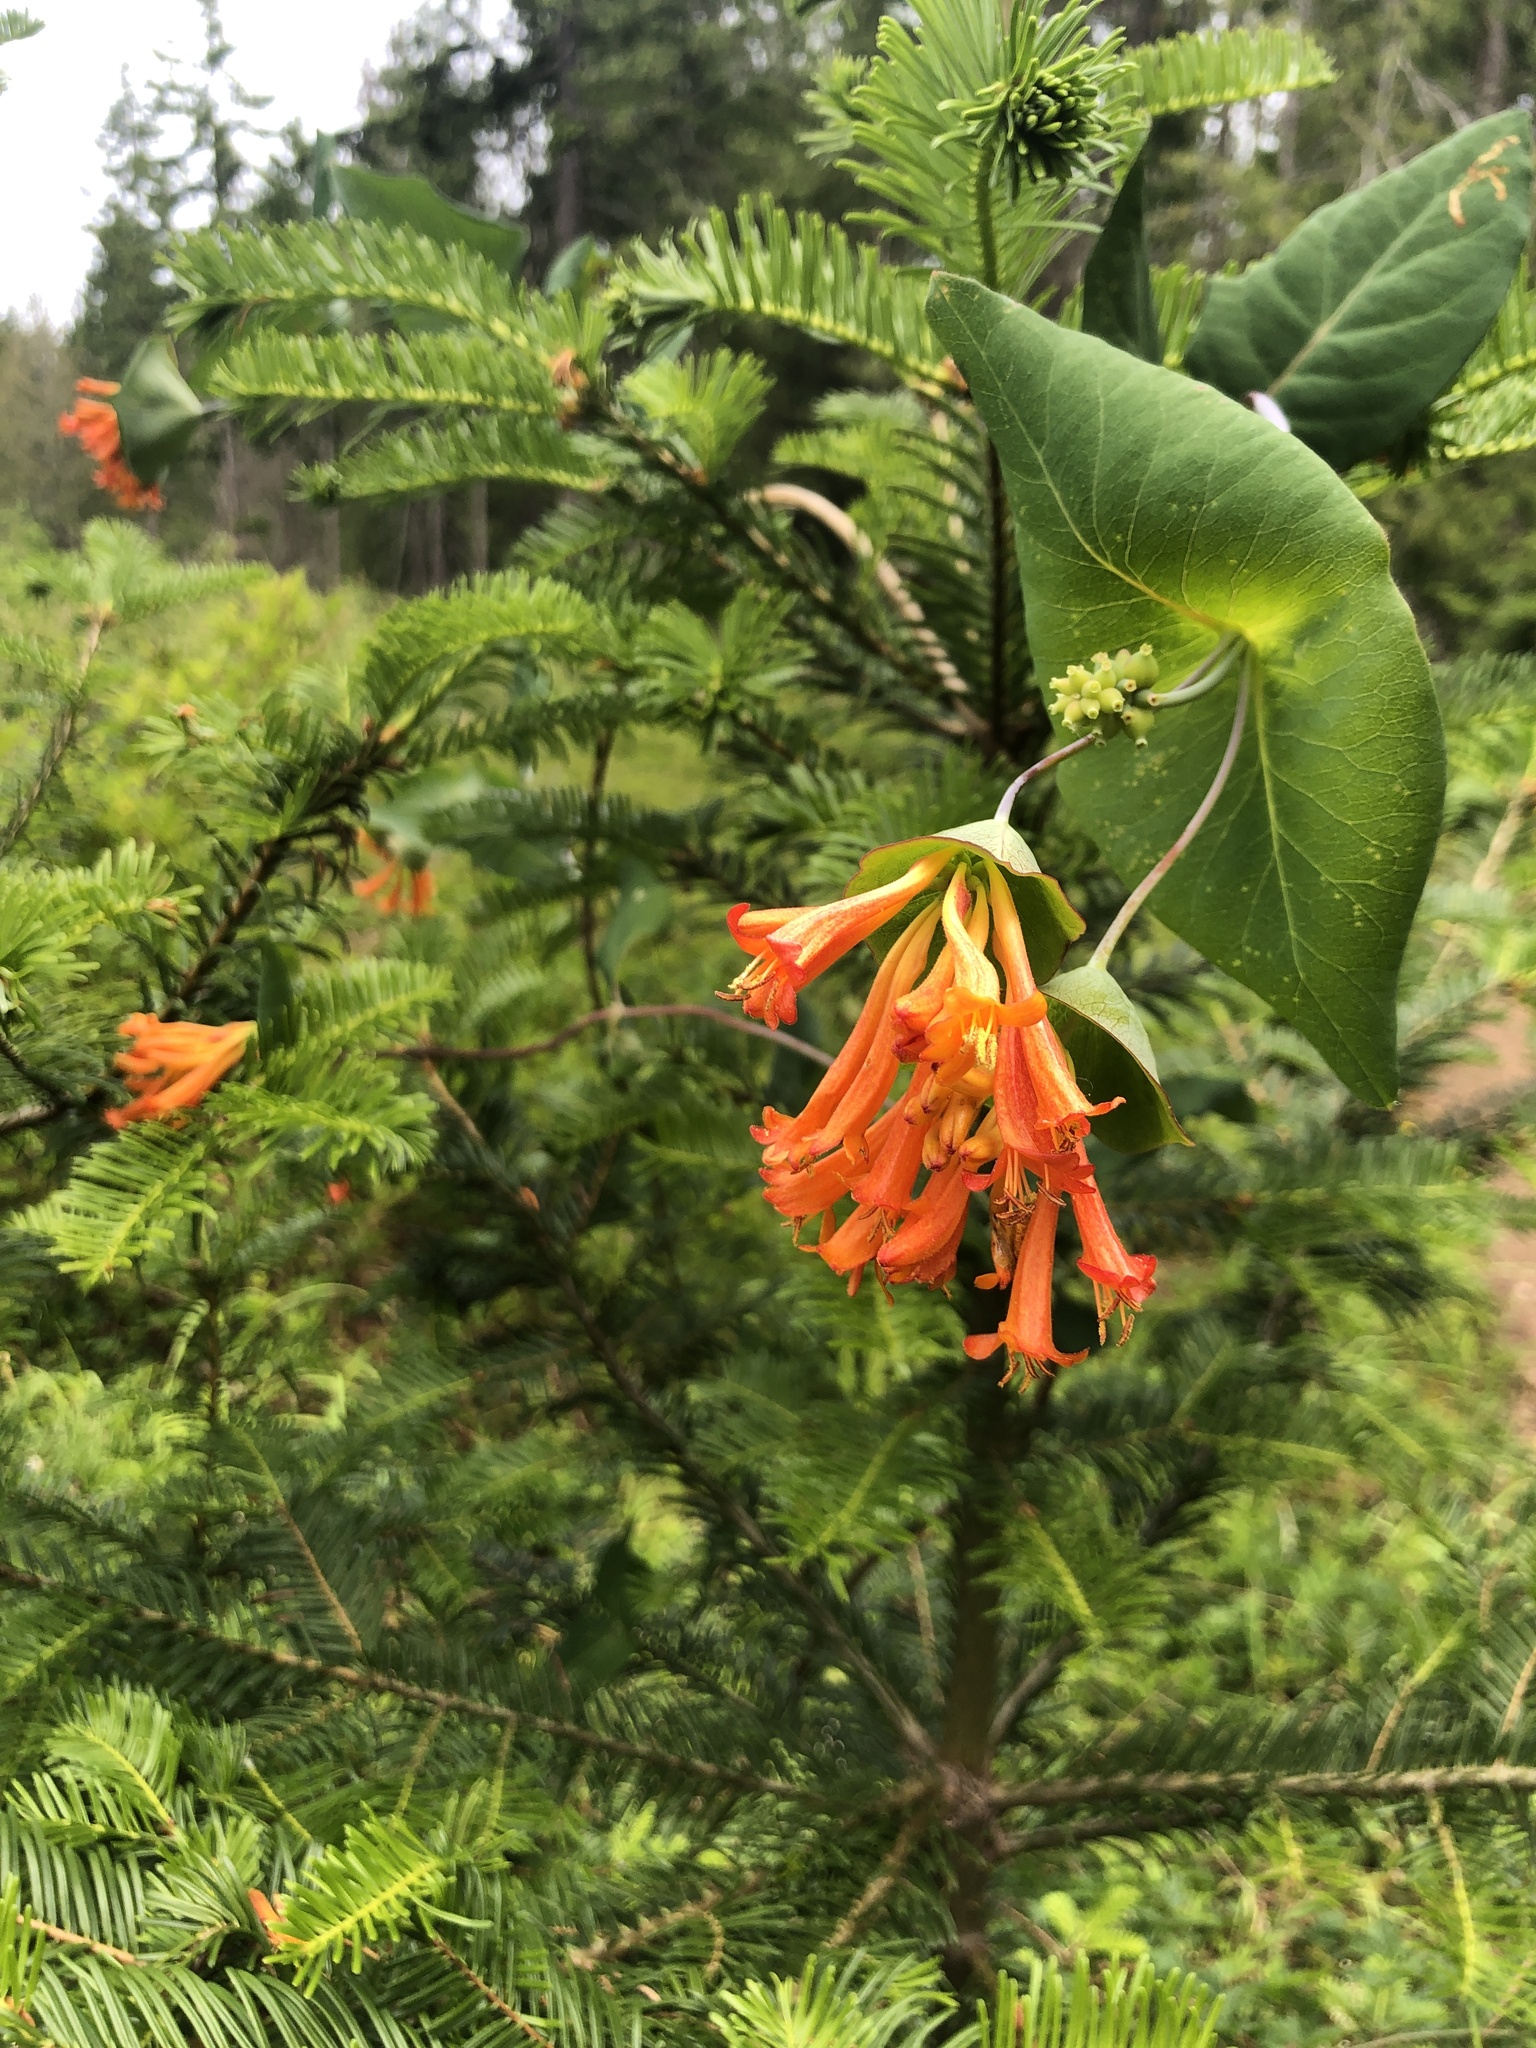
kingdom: Plantae
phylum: Tracheophyta
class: Magnoliopsida
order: Dipsacales
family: Caprifoliaceae
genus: Lonicera
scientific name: Lonicera ciliosa
